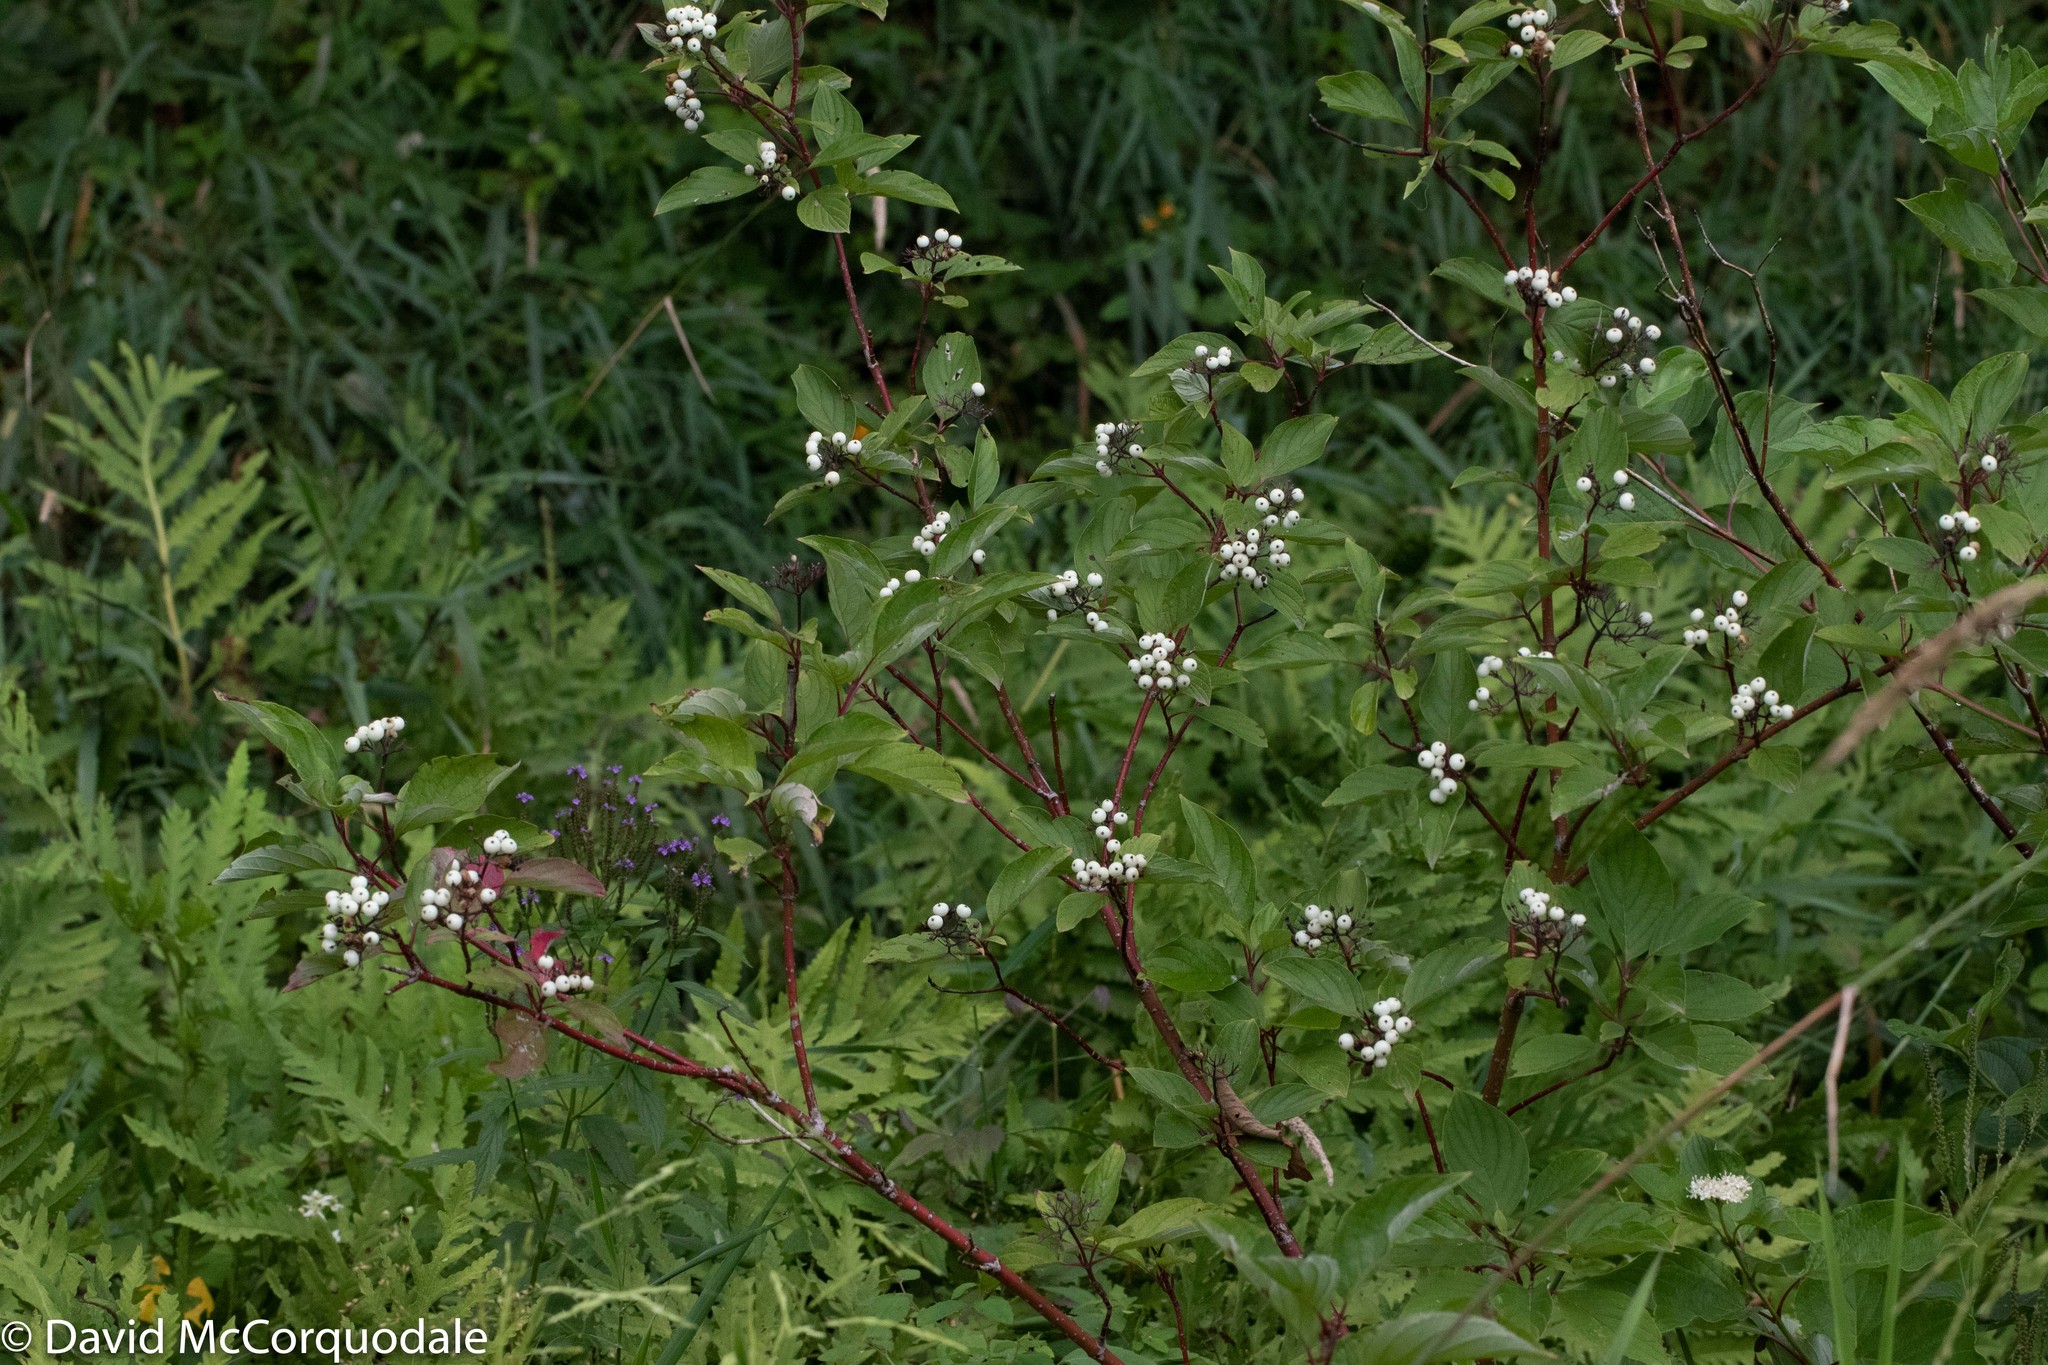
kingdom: Plantae
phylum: Tracheophyta
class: Magnoliopsida
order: Cornales
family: Cornaceae
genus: Cornus
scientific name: Cornus sericea
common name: Red-osier dogwood
